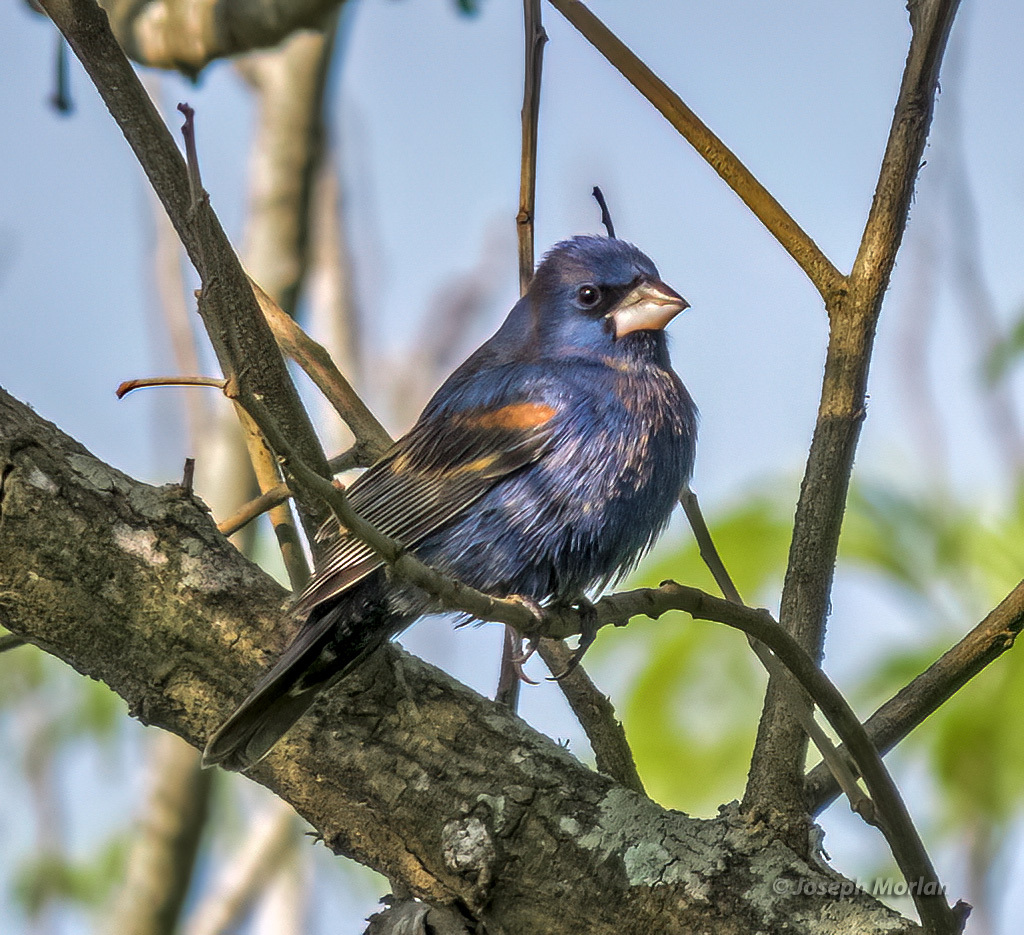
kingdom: Animalia
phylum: Chordata
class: Aves
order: Passeriformes
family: Cardinalidae
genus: Passerina
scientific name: Passerina caerulea
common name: Blue grosbeak
